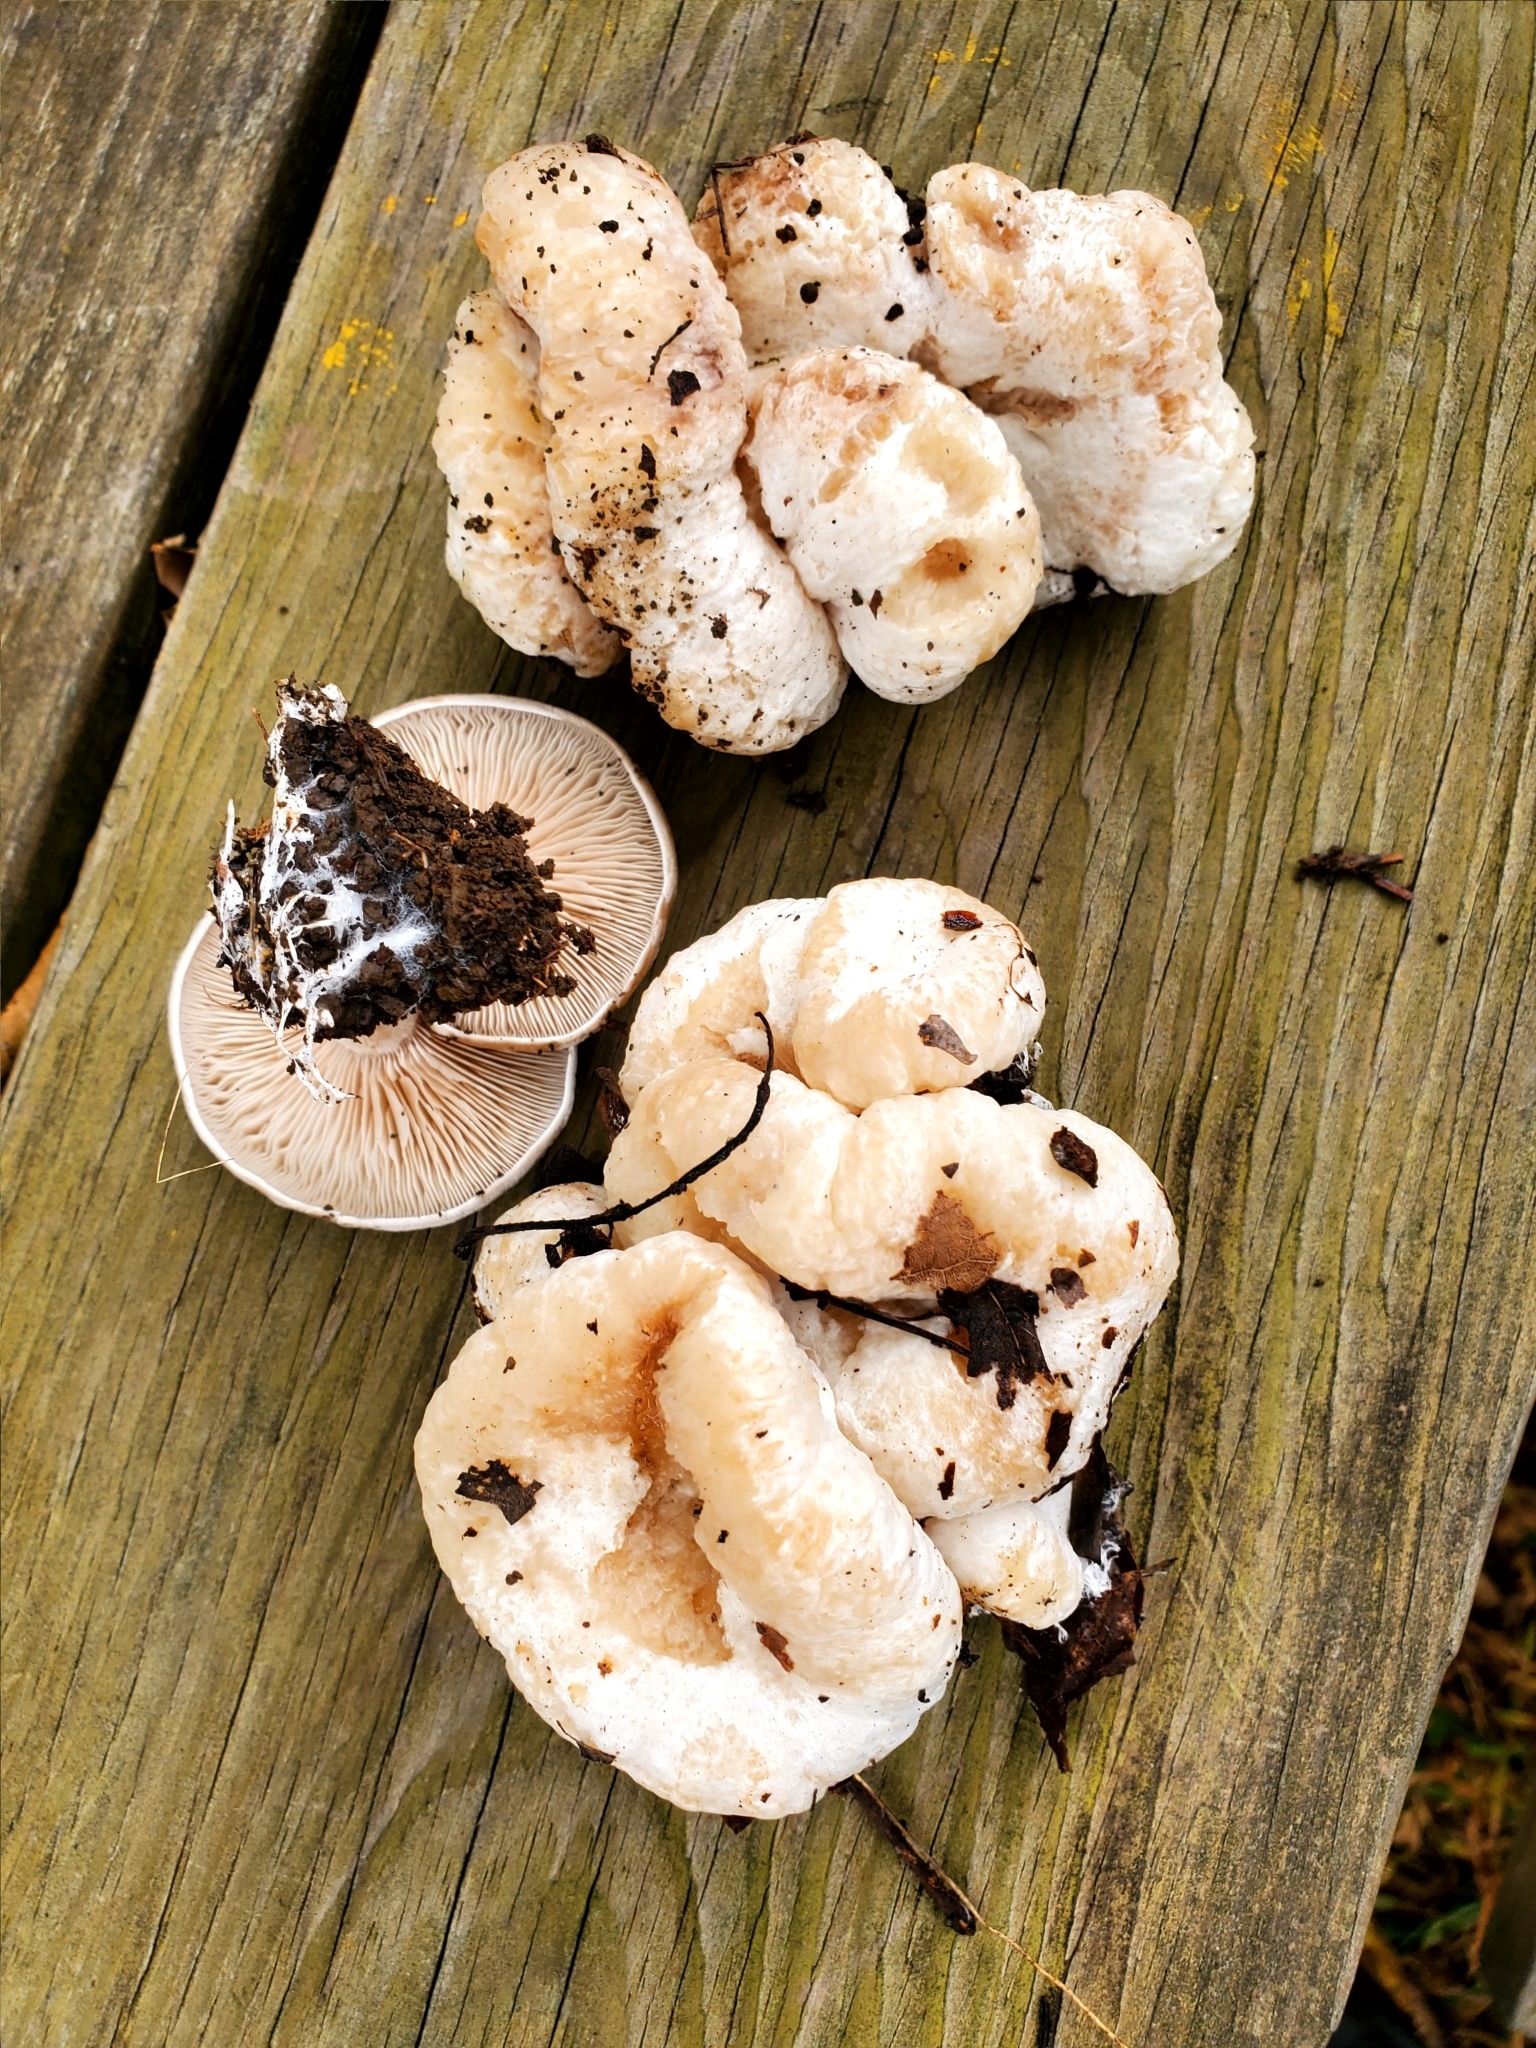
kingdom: Fungi
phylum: Basidiomycota
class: Agaricomycetes
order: Agaricales
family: Entolomataceae
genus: Entoloma
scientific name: Entoloma abortivum
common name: Aborted entoloma
